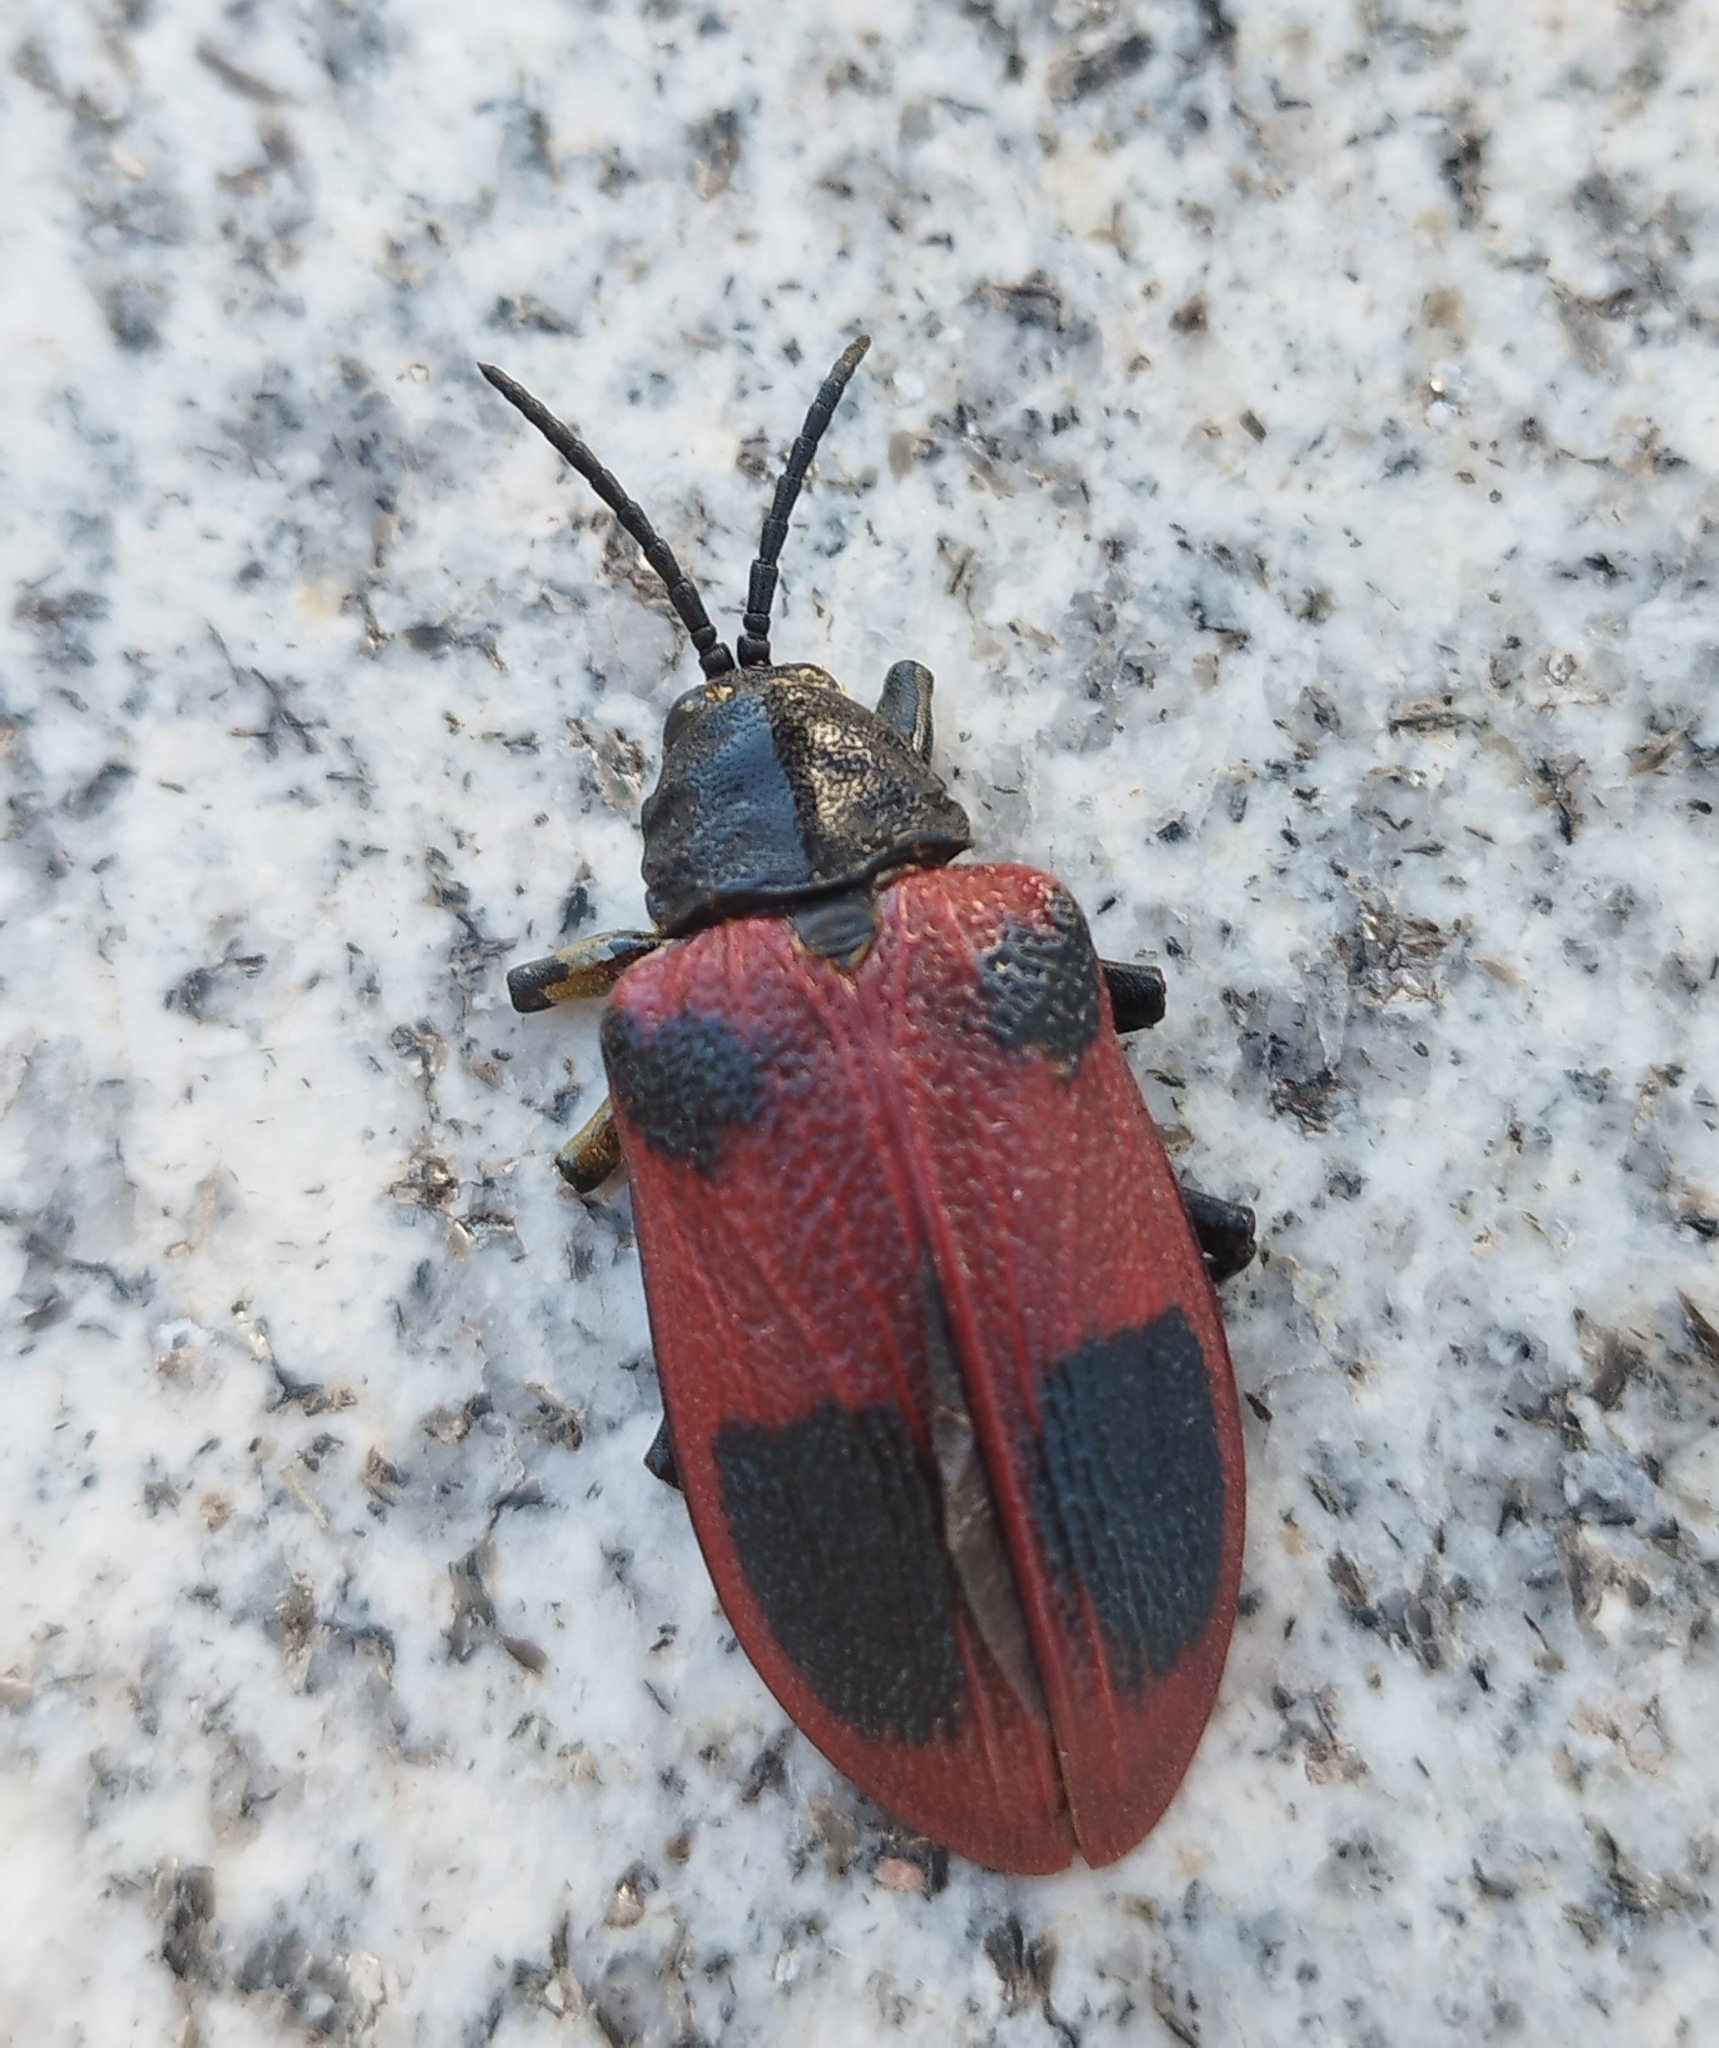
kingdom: Animalia
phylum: Arthropoda
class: Insecta
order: Coleoptera
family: Chrysomelidae
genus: Coraliomela
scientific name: Coraliomela quadrimaculata
